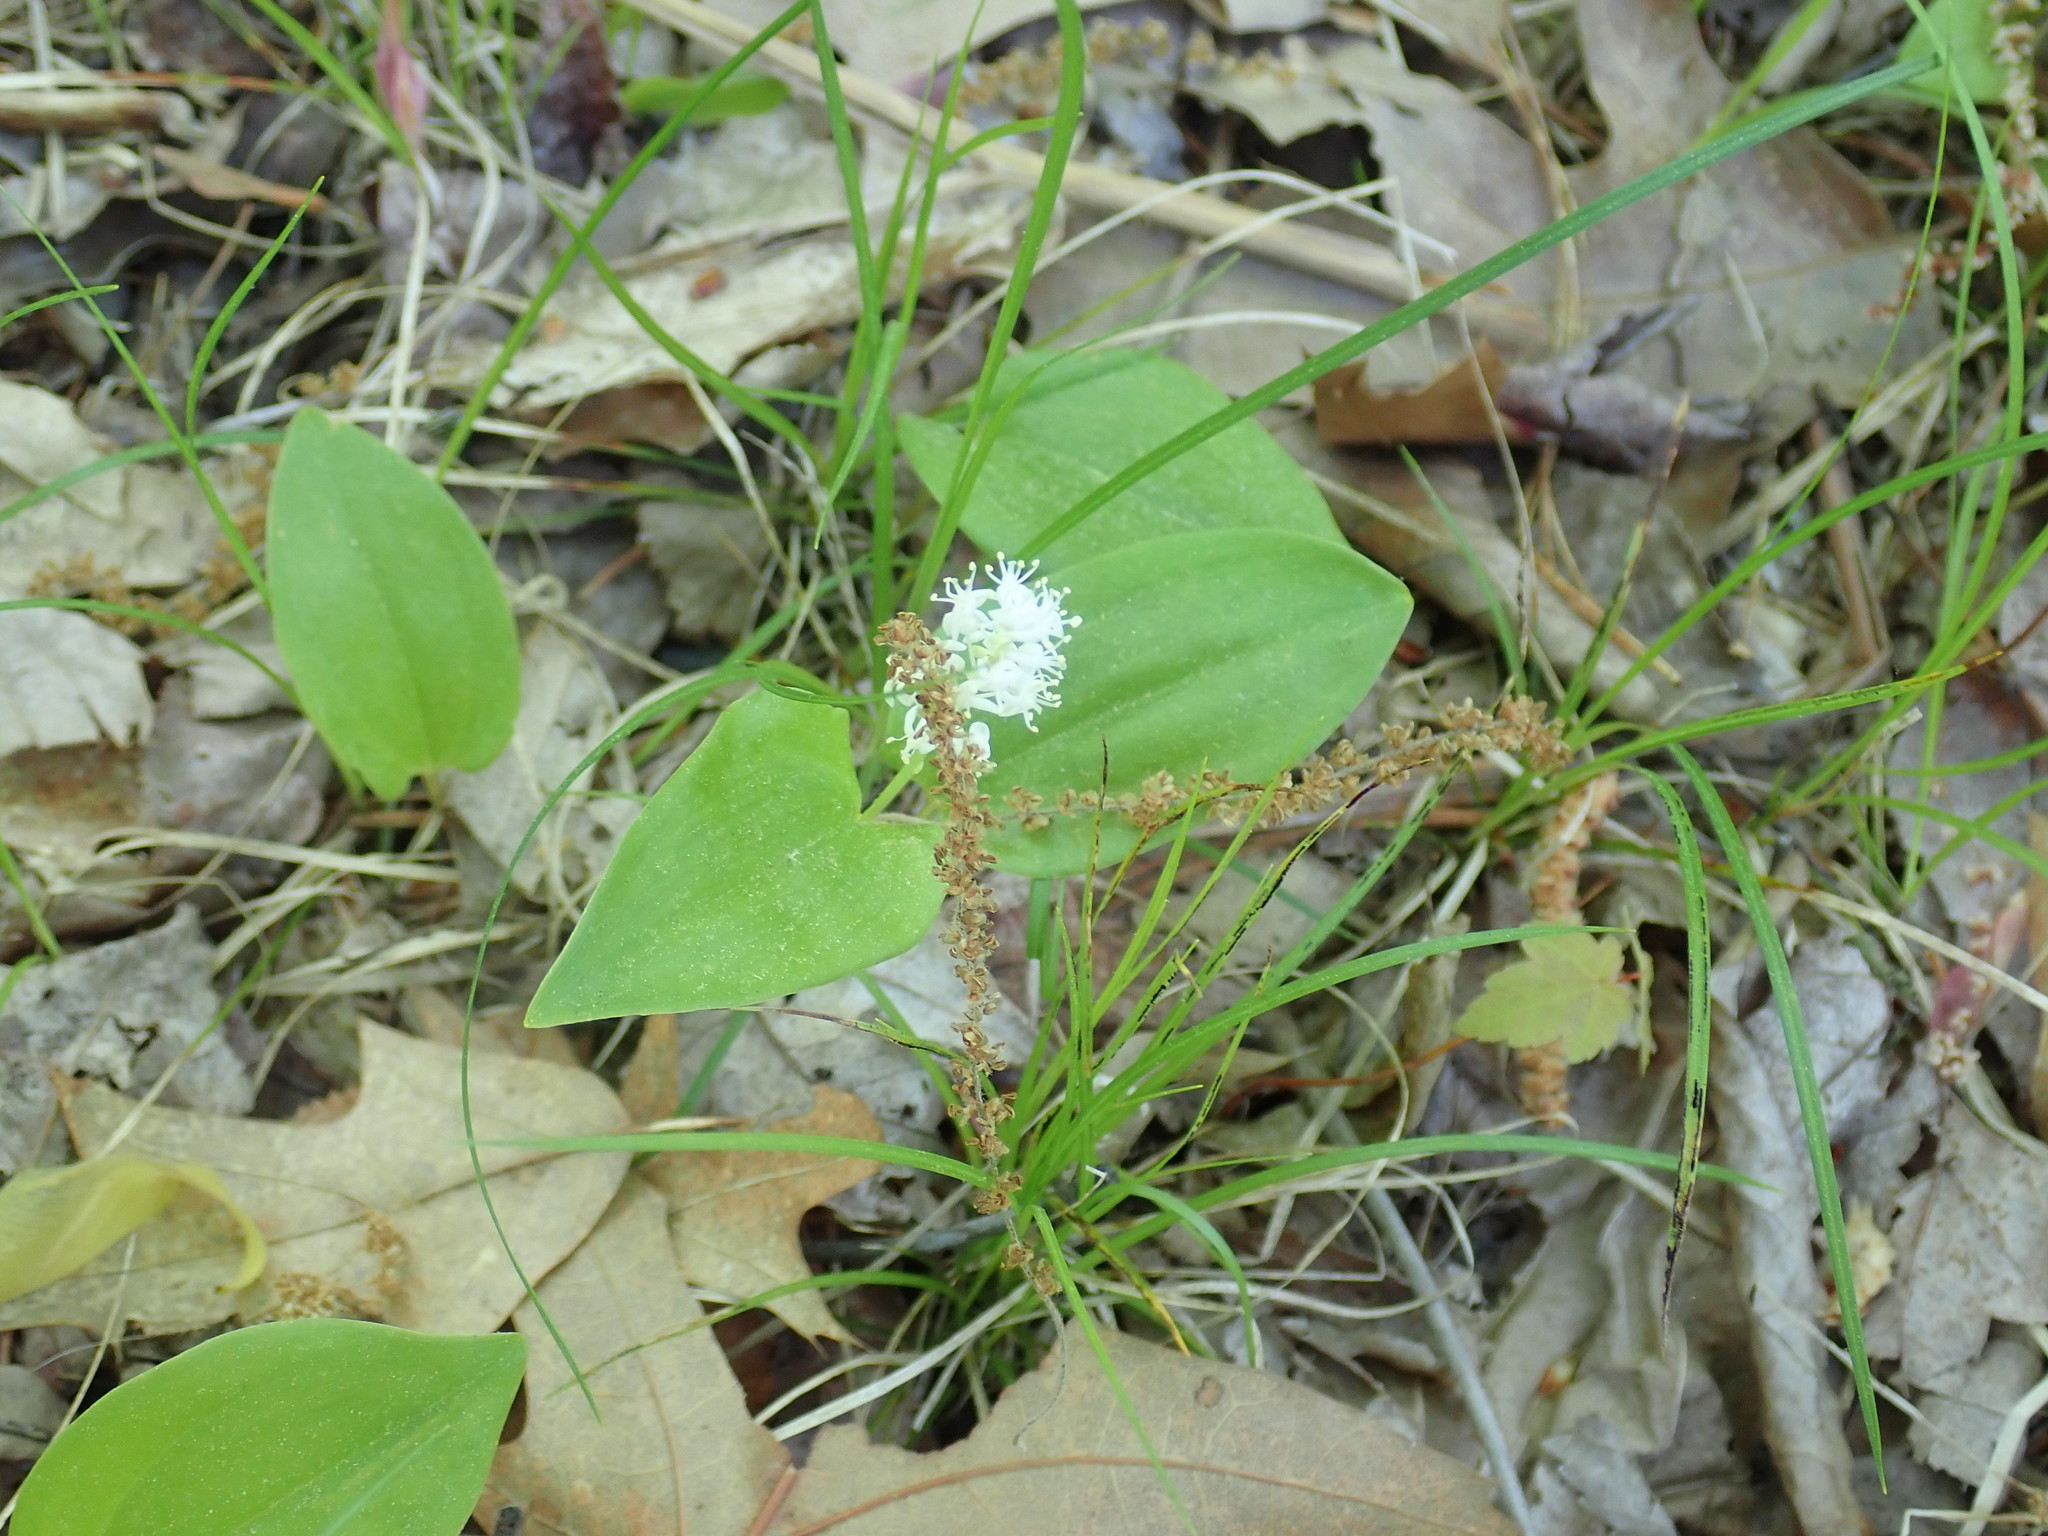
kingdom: Plantae
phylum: Tracheophyta
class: Liliopsida
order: Asparagales
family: Asparagaceae
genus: Maianthemum
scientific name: Maianthemum canadense
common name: False lily-of-the-valley
